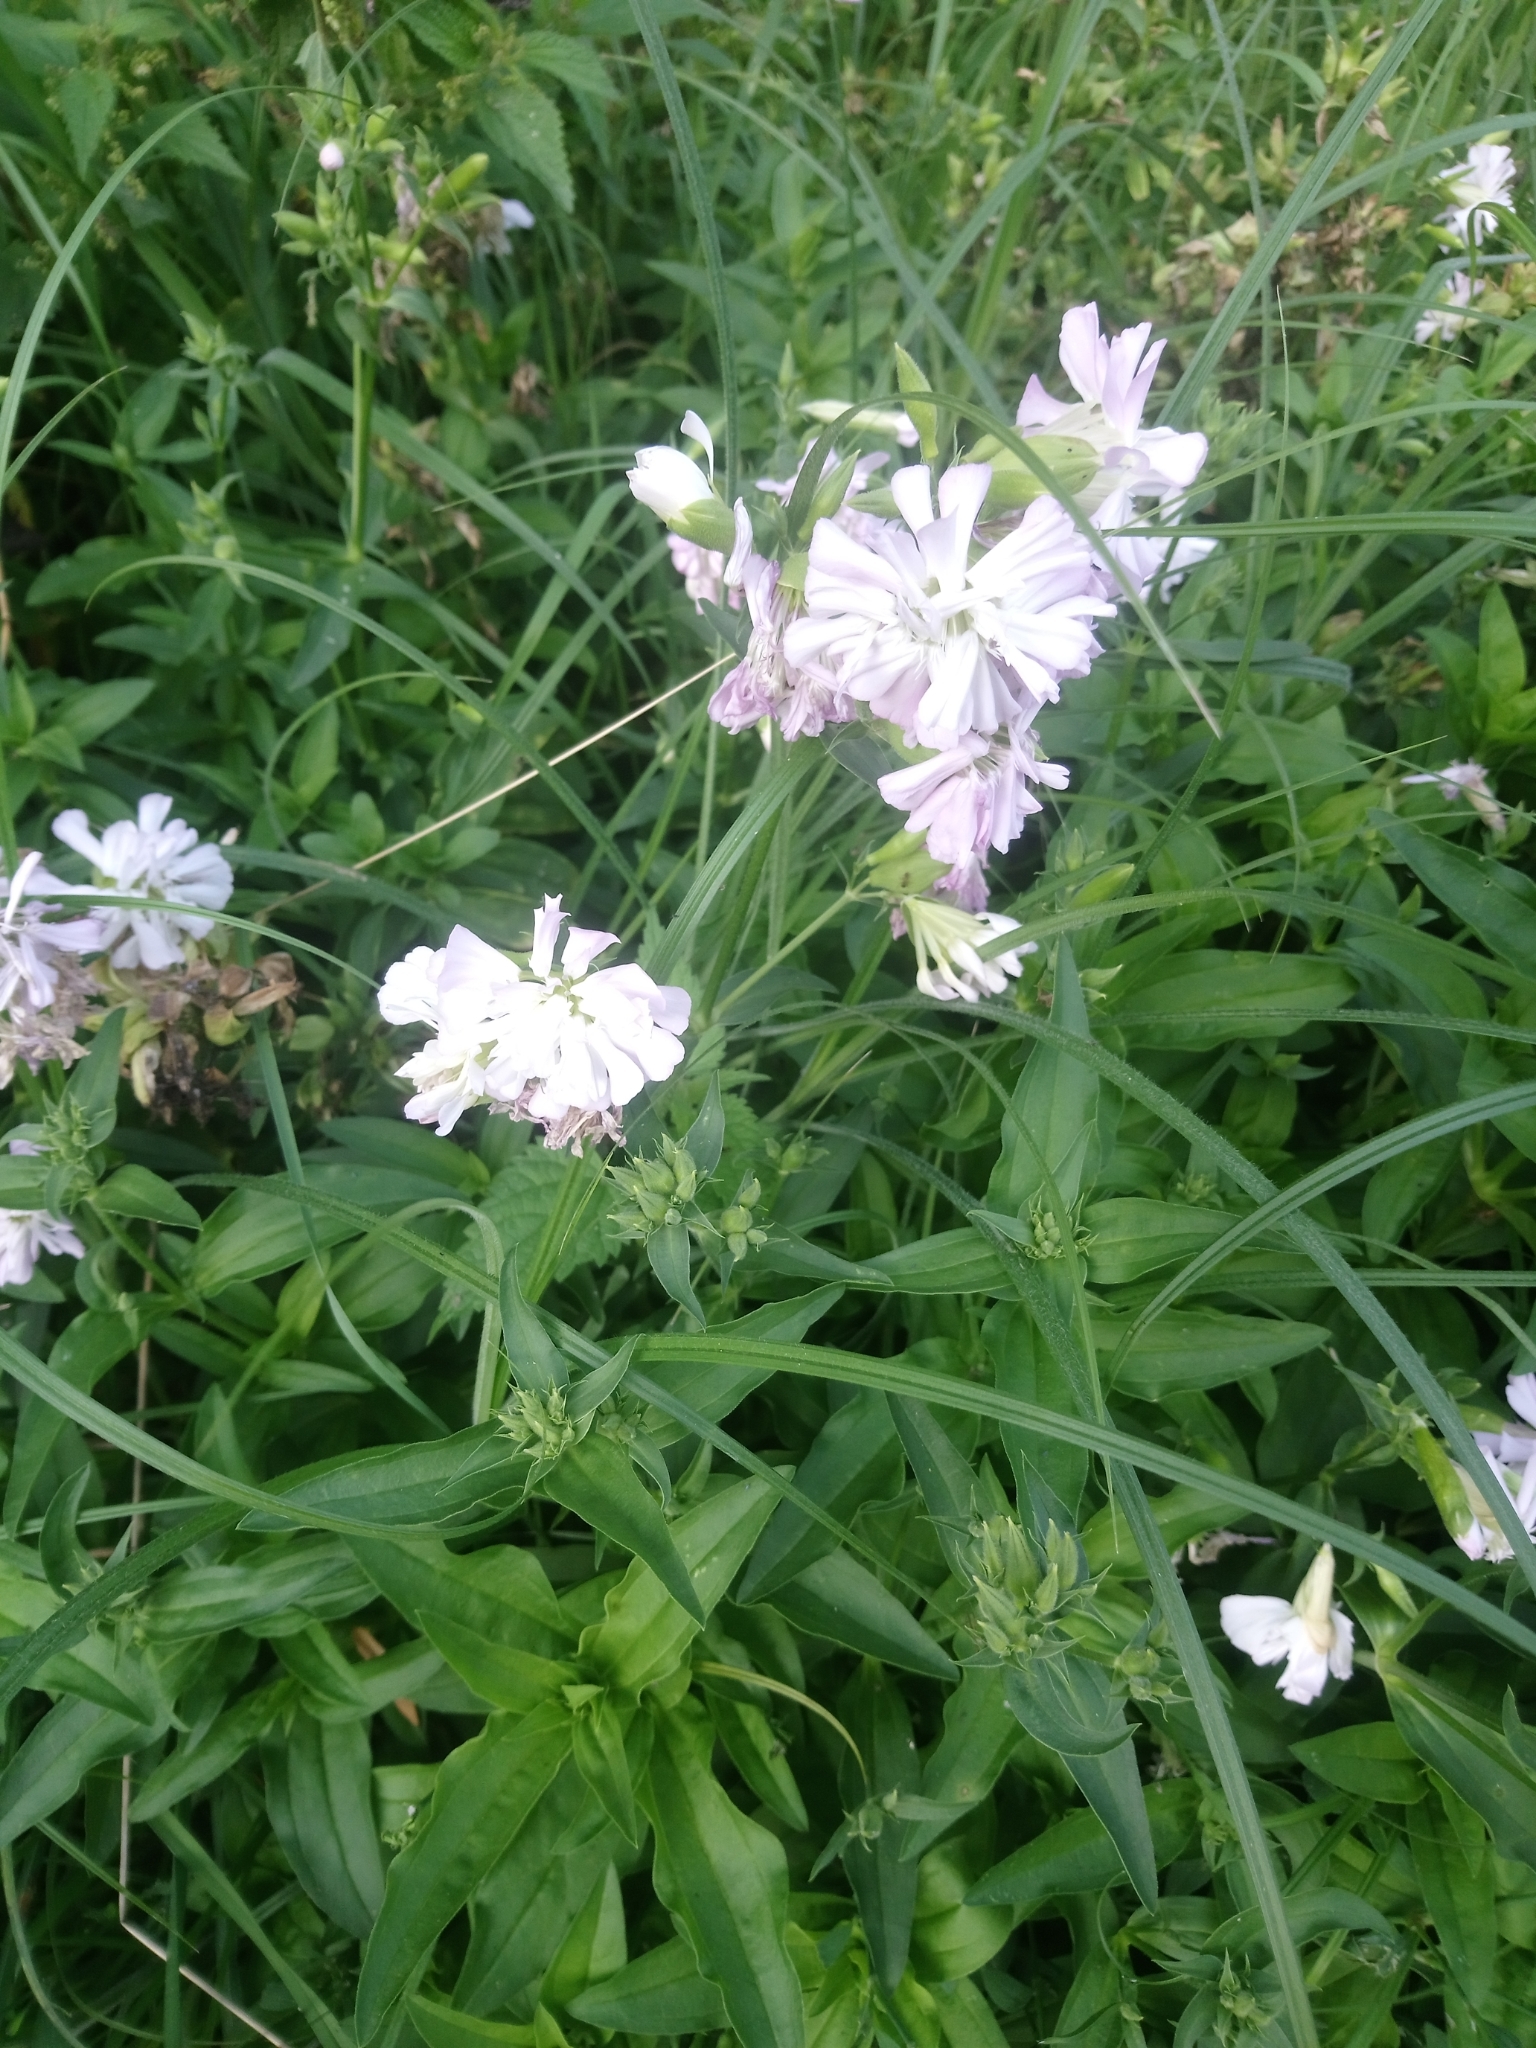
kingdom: Plantae
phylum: Tracheophyta
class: Magnoliopsida
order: Caryophyllales
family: Caryophyllaceae
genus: Saponaria
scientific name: Saponaria officinalis
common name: Soapwort
